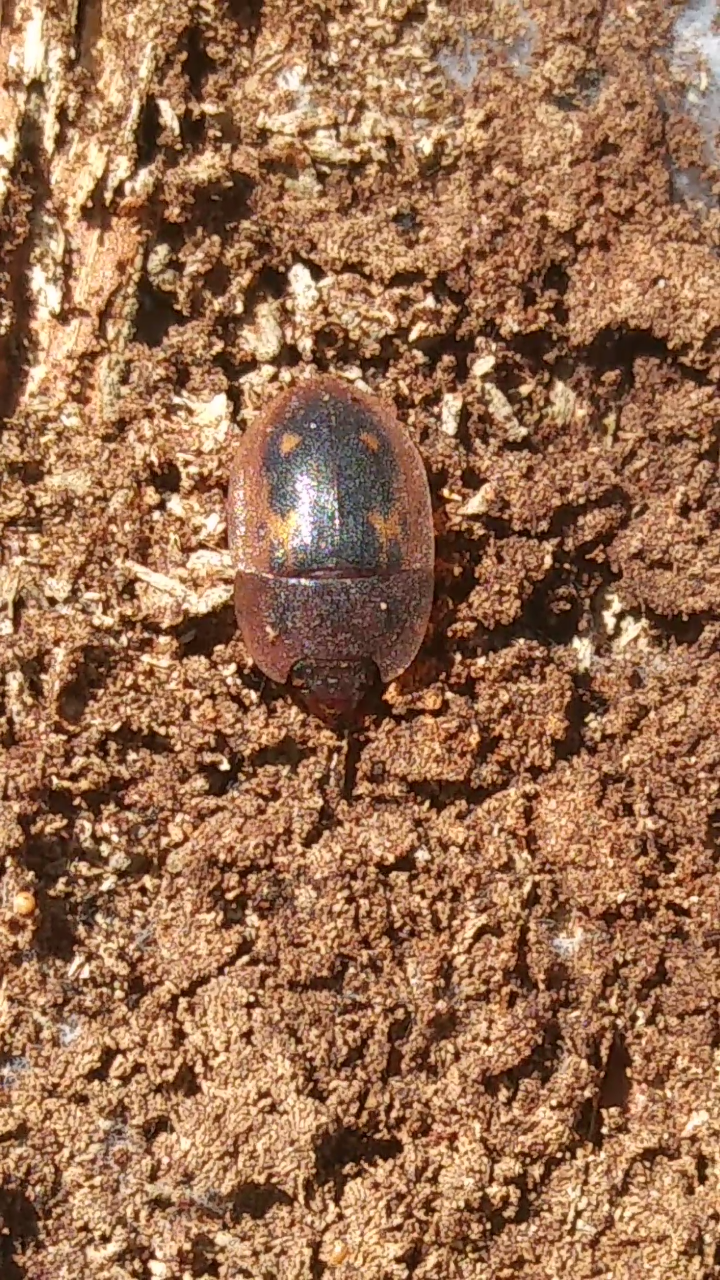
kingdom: Animalia
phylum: Arthropoda
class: Insecta
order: Coleoptera
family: Nitidulidae
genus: Prometopia
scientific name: Prometopia sexmaculata
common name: Six-spotted sap-feeding beetle
